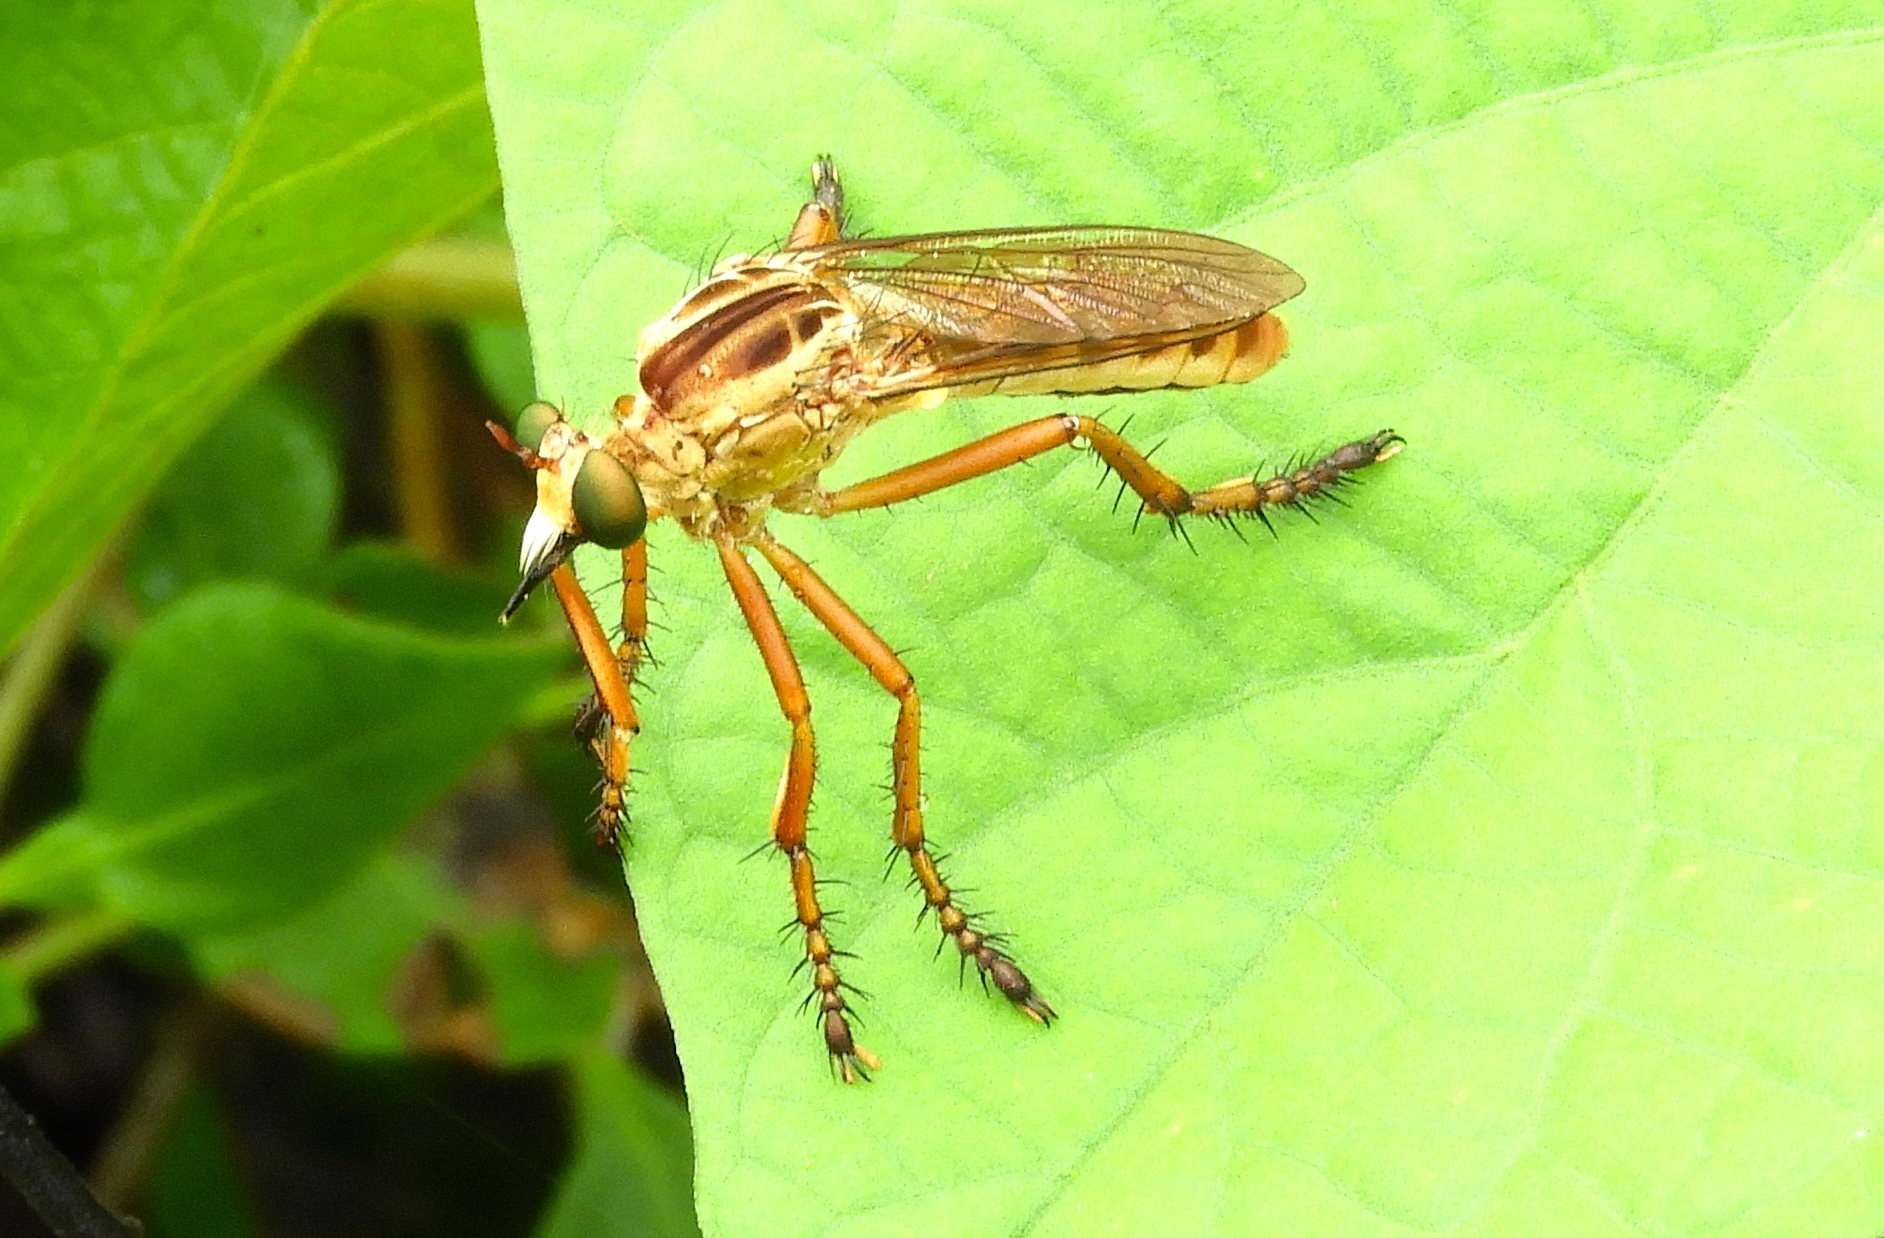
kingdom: Animalia
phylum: Arthropoda
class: Insecta
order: Diptera
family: Asilidae
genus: Diogmites
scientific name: Diogmites
